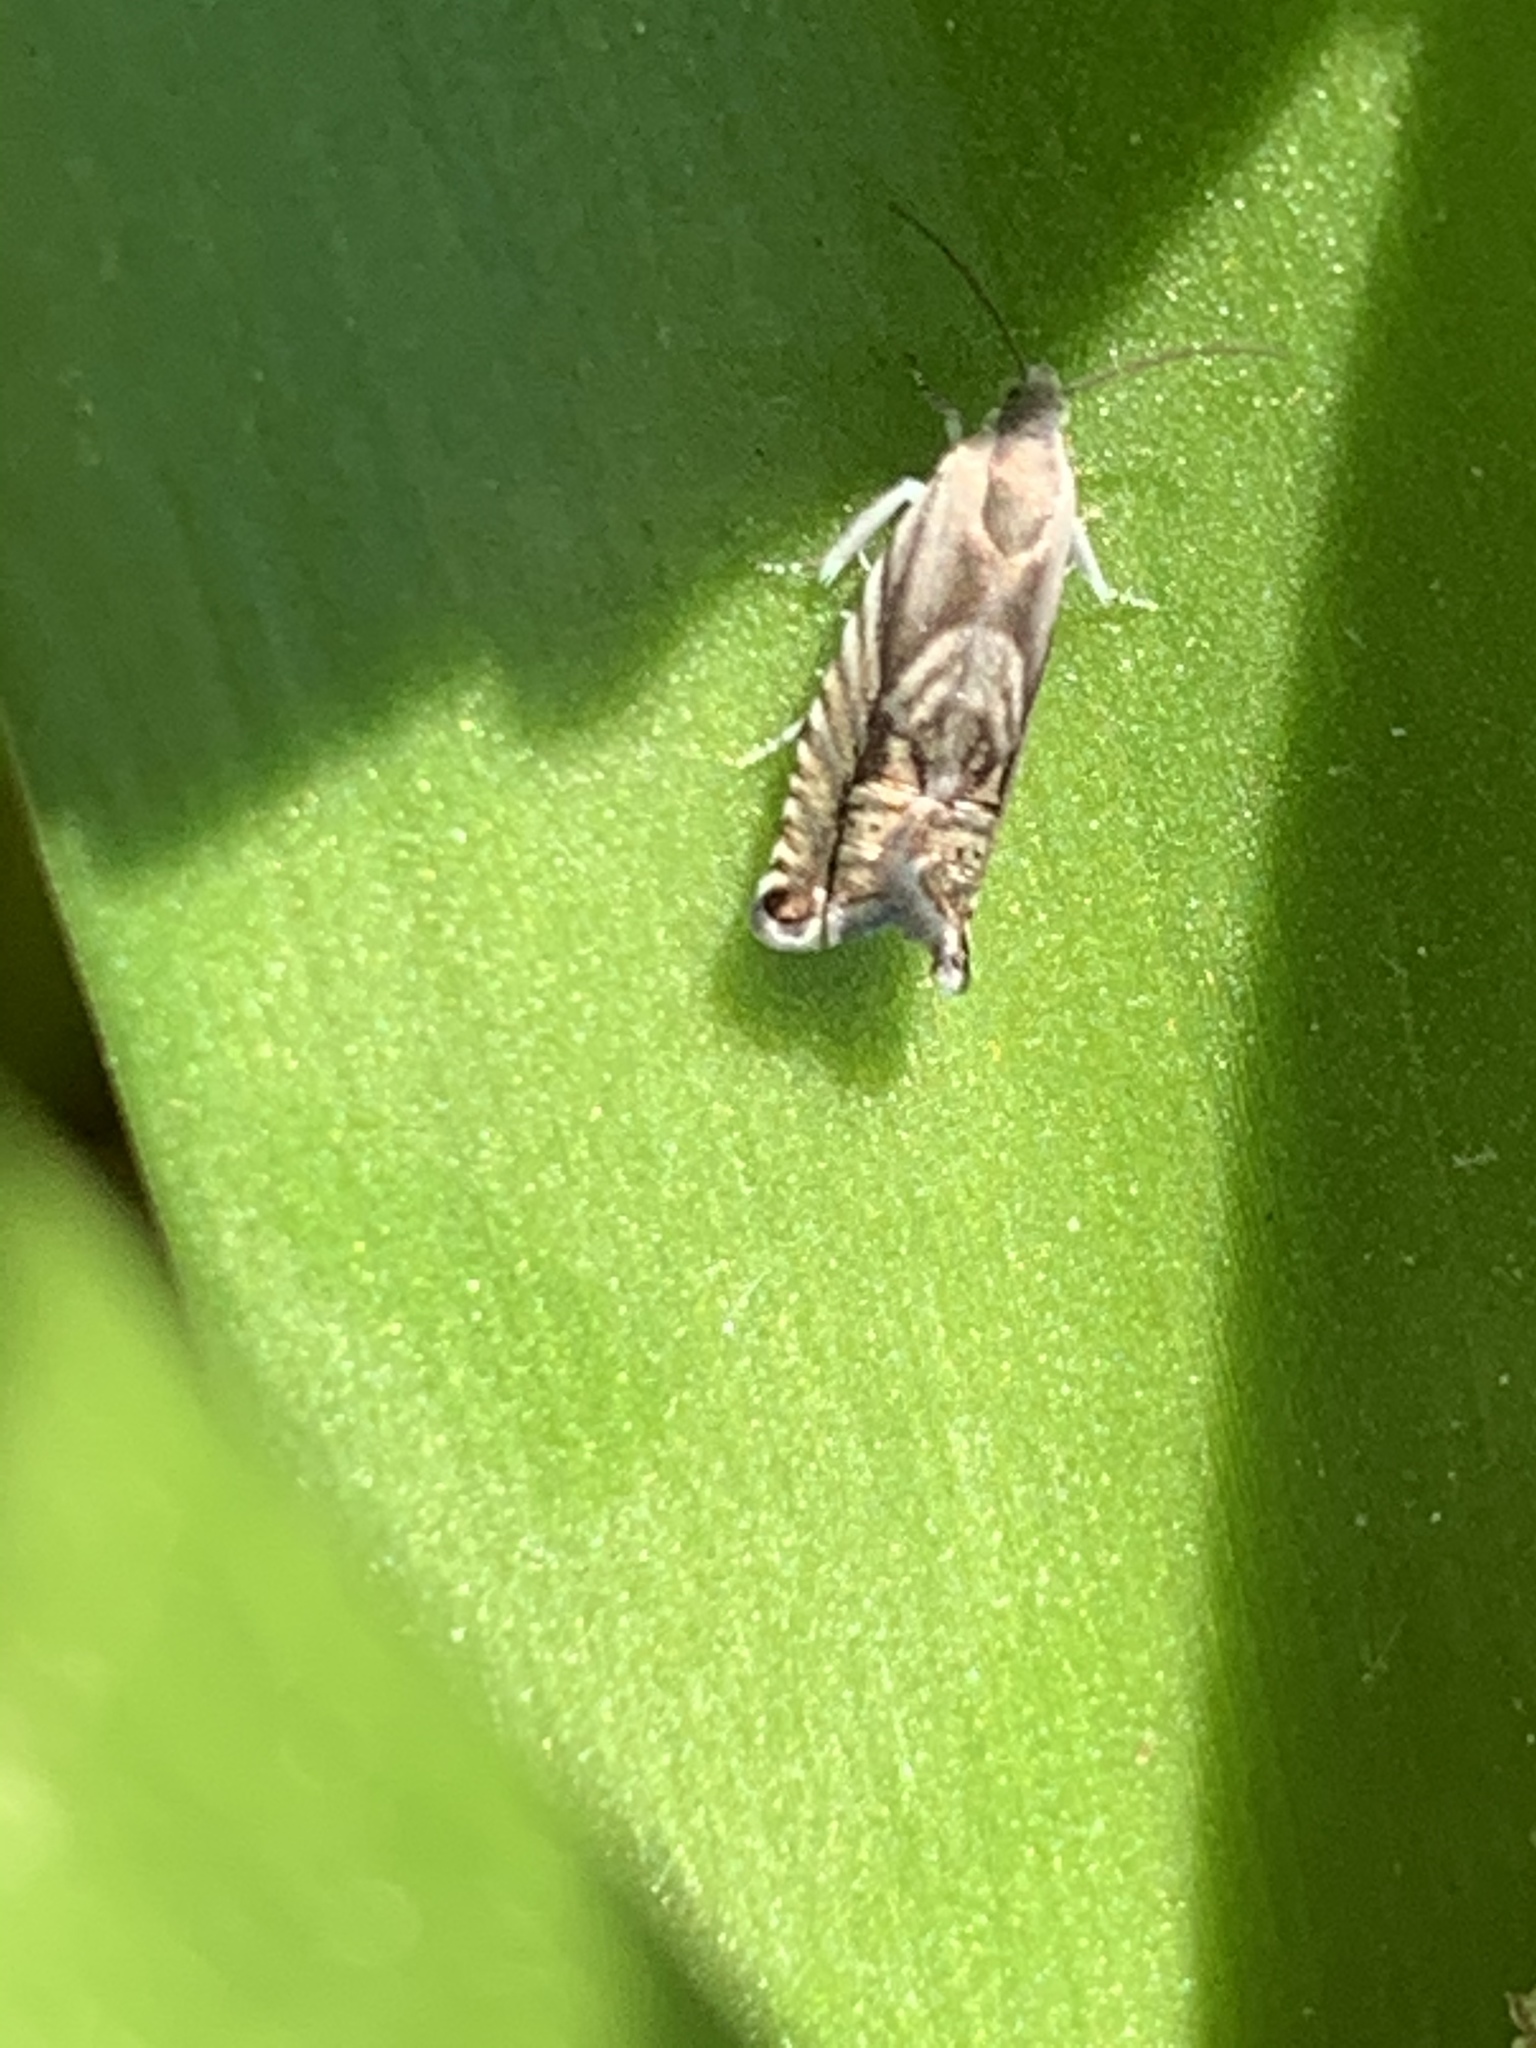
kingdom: Animalia
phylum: Arthropoda
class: Insecta
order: Lepidoptera
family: Tortricidae
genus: Grapholita
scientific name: Grapholita
